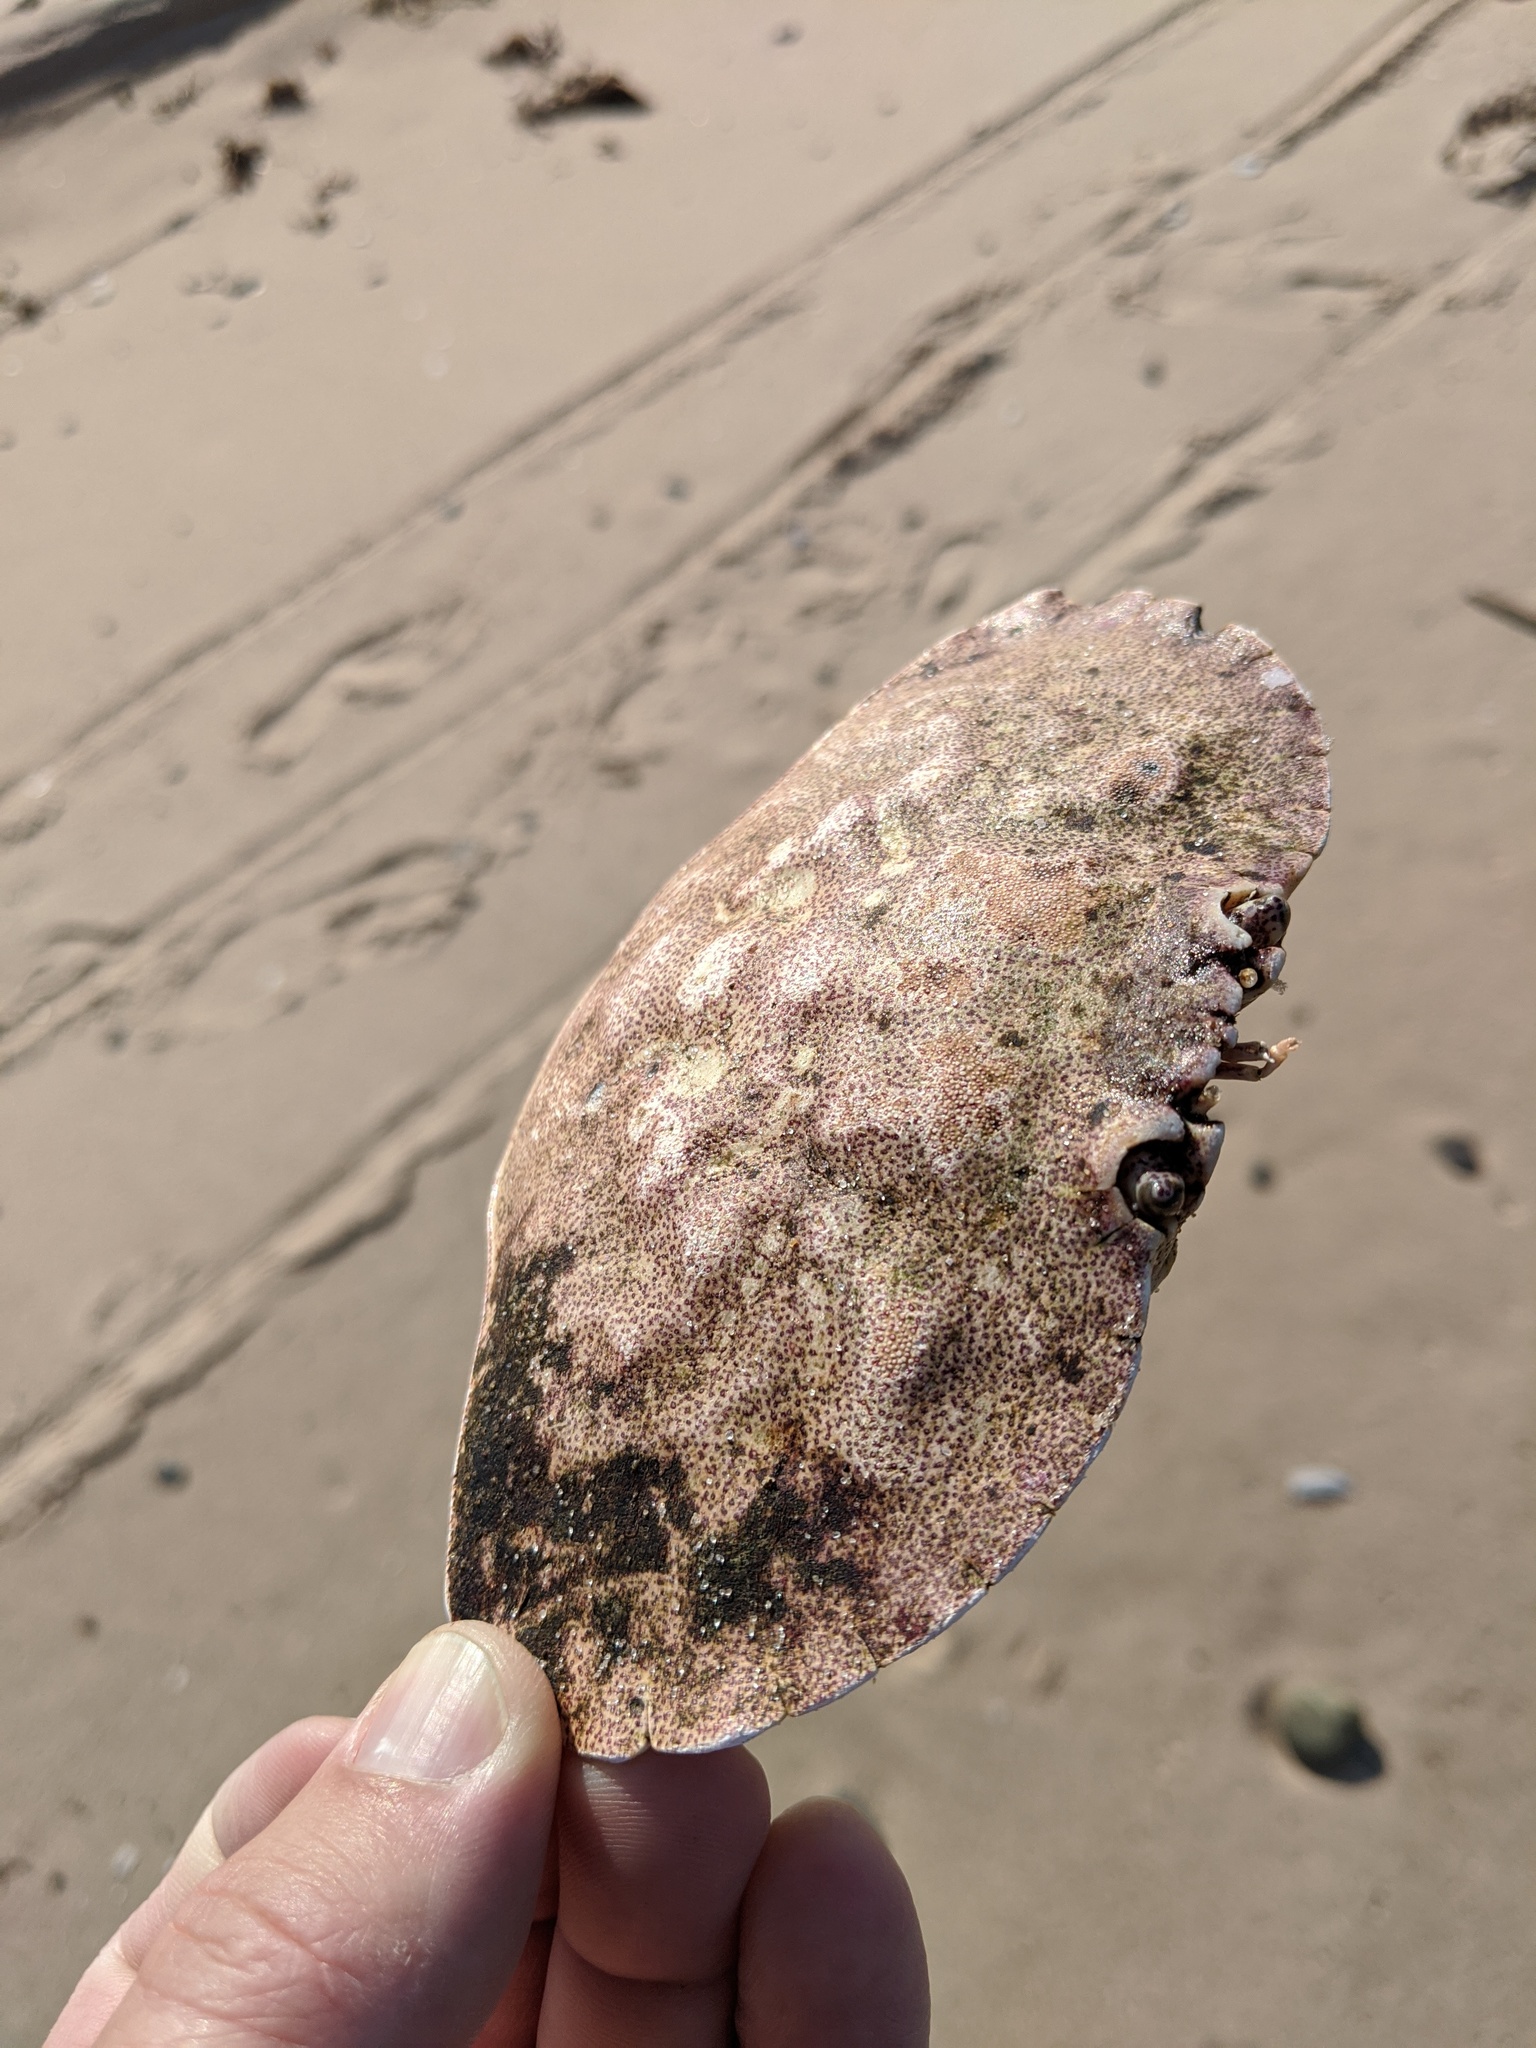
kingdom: Animalia
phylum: Arthropoda
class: Malacostraca
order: Decapoda
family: Cancridae
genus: Cancer
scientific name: Cancer irroratus
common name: Atlantic rock crab
